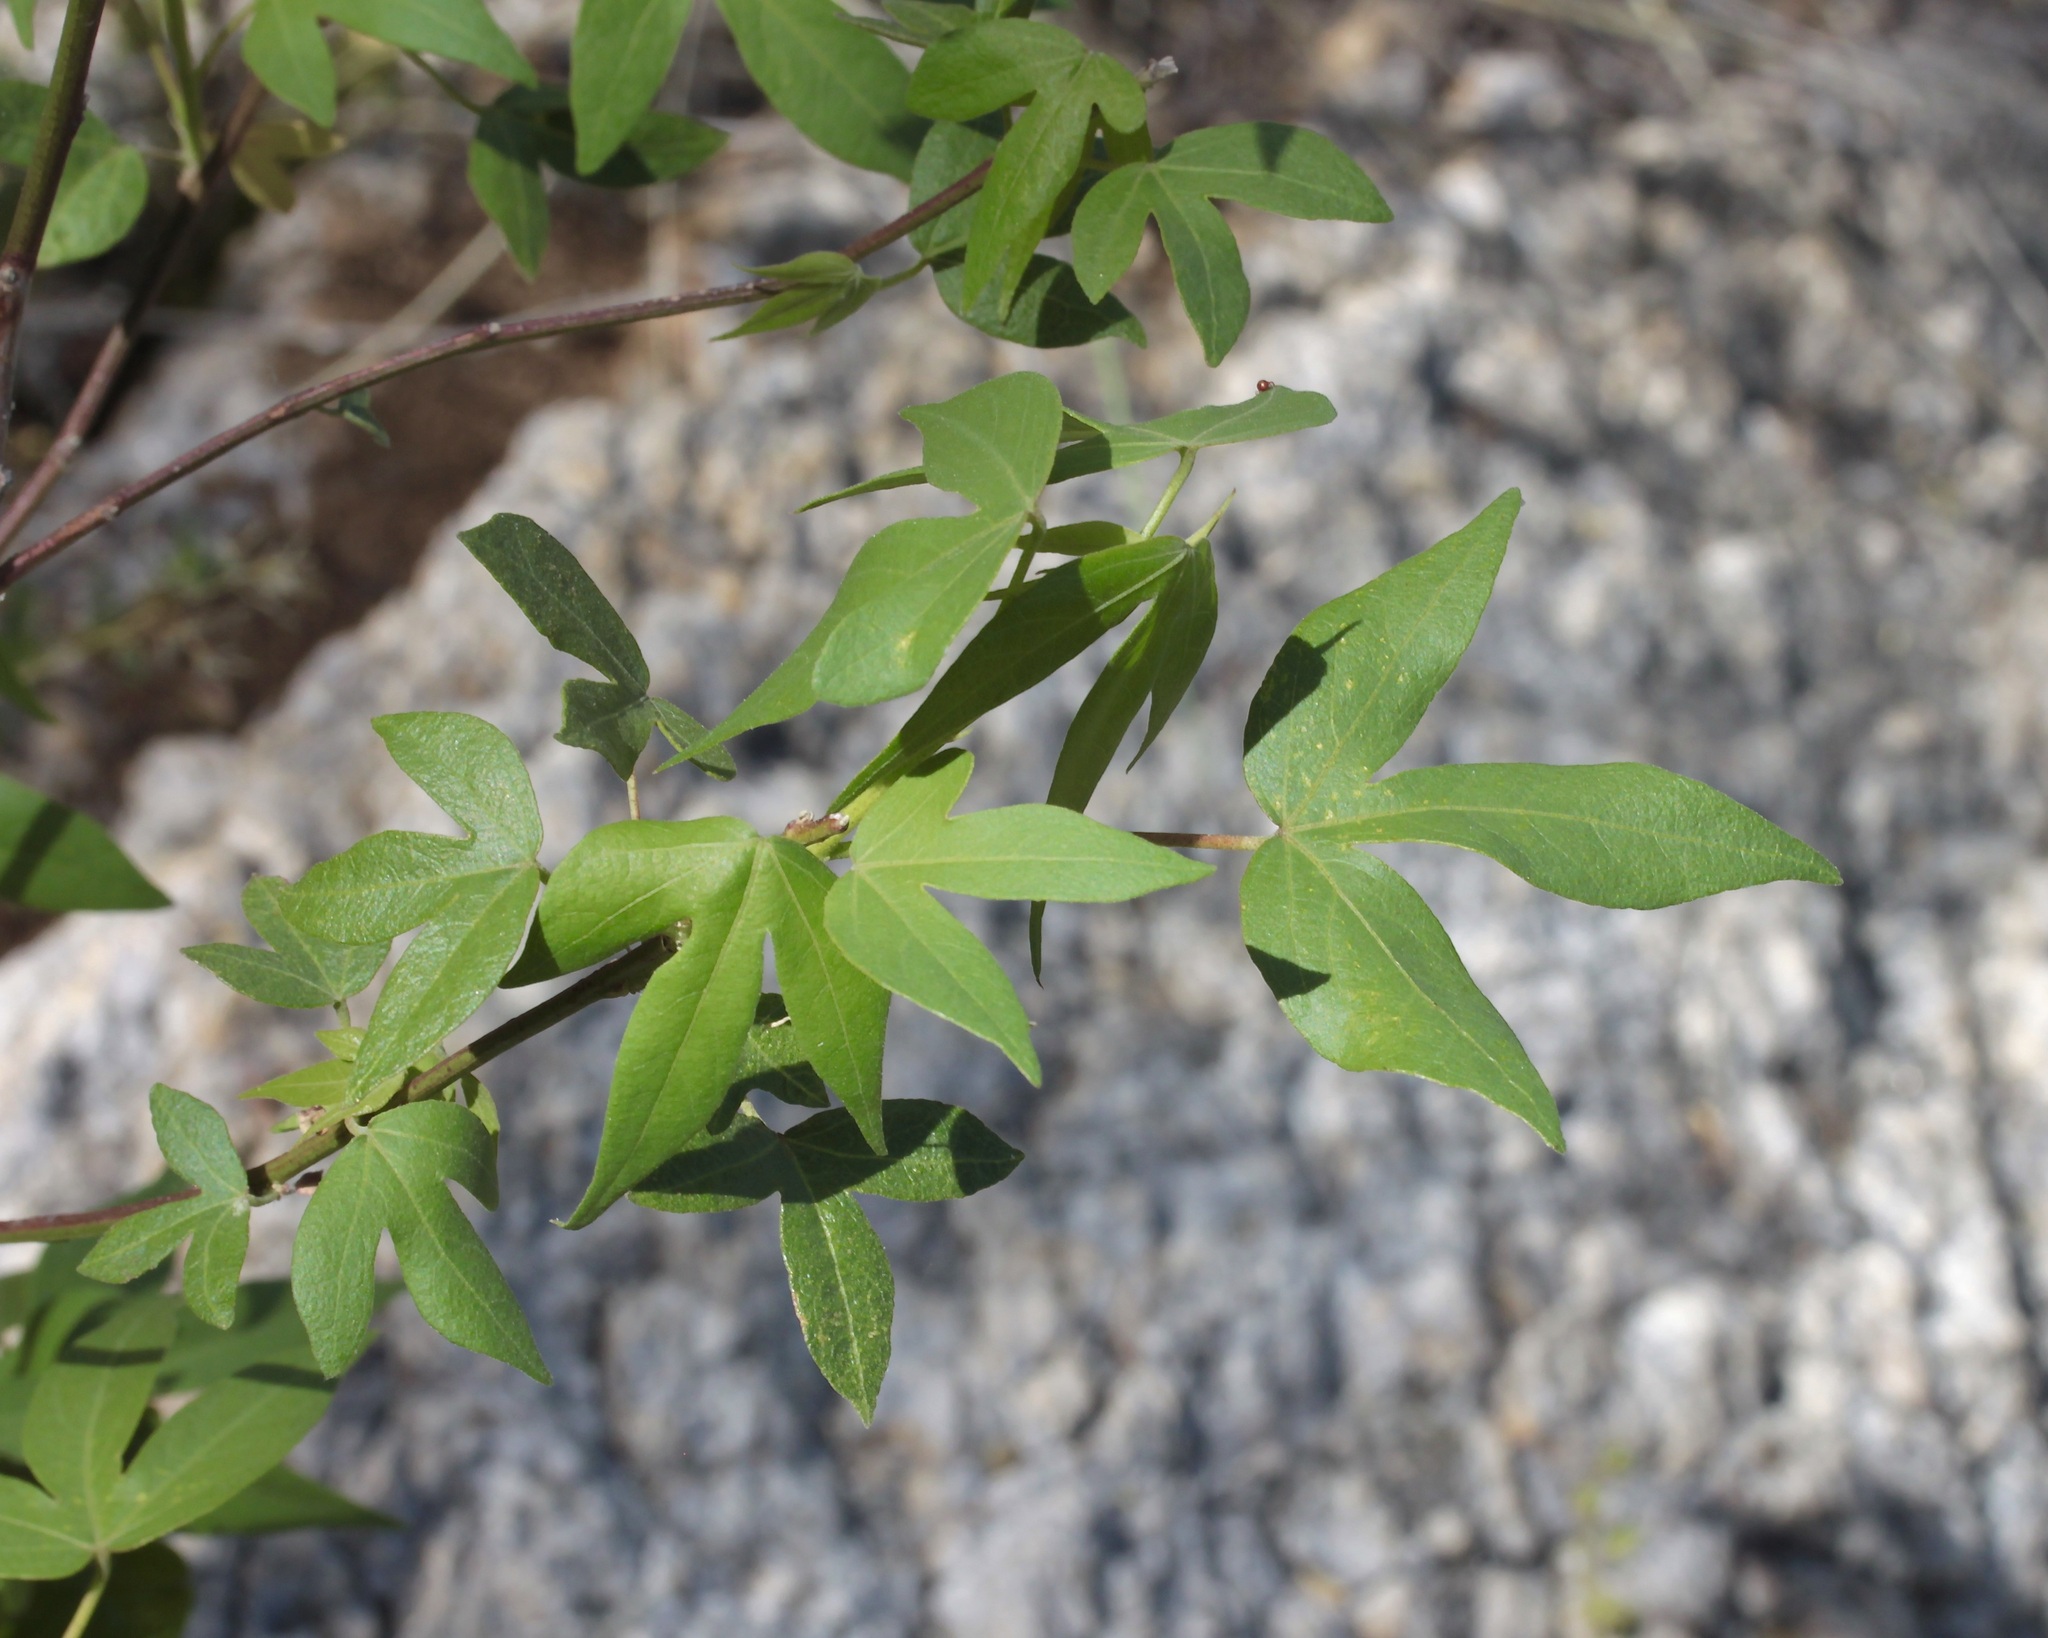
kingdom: Plantae
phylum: Tracheophyta
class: Magnoliopsida
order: Malvales
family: Malvaceae
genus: Gossypium
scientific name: Gossypium thurberi
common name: Desert cotton
